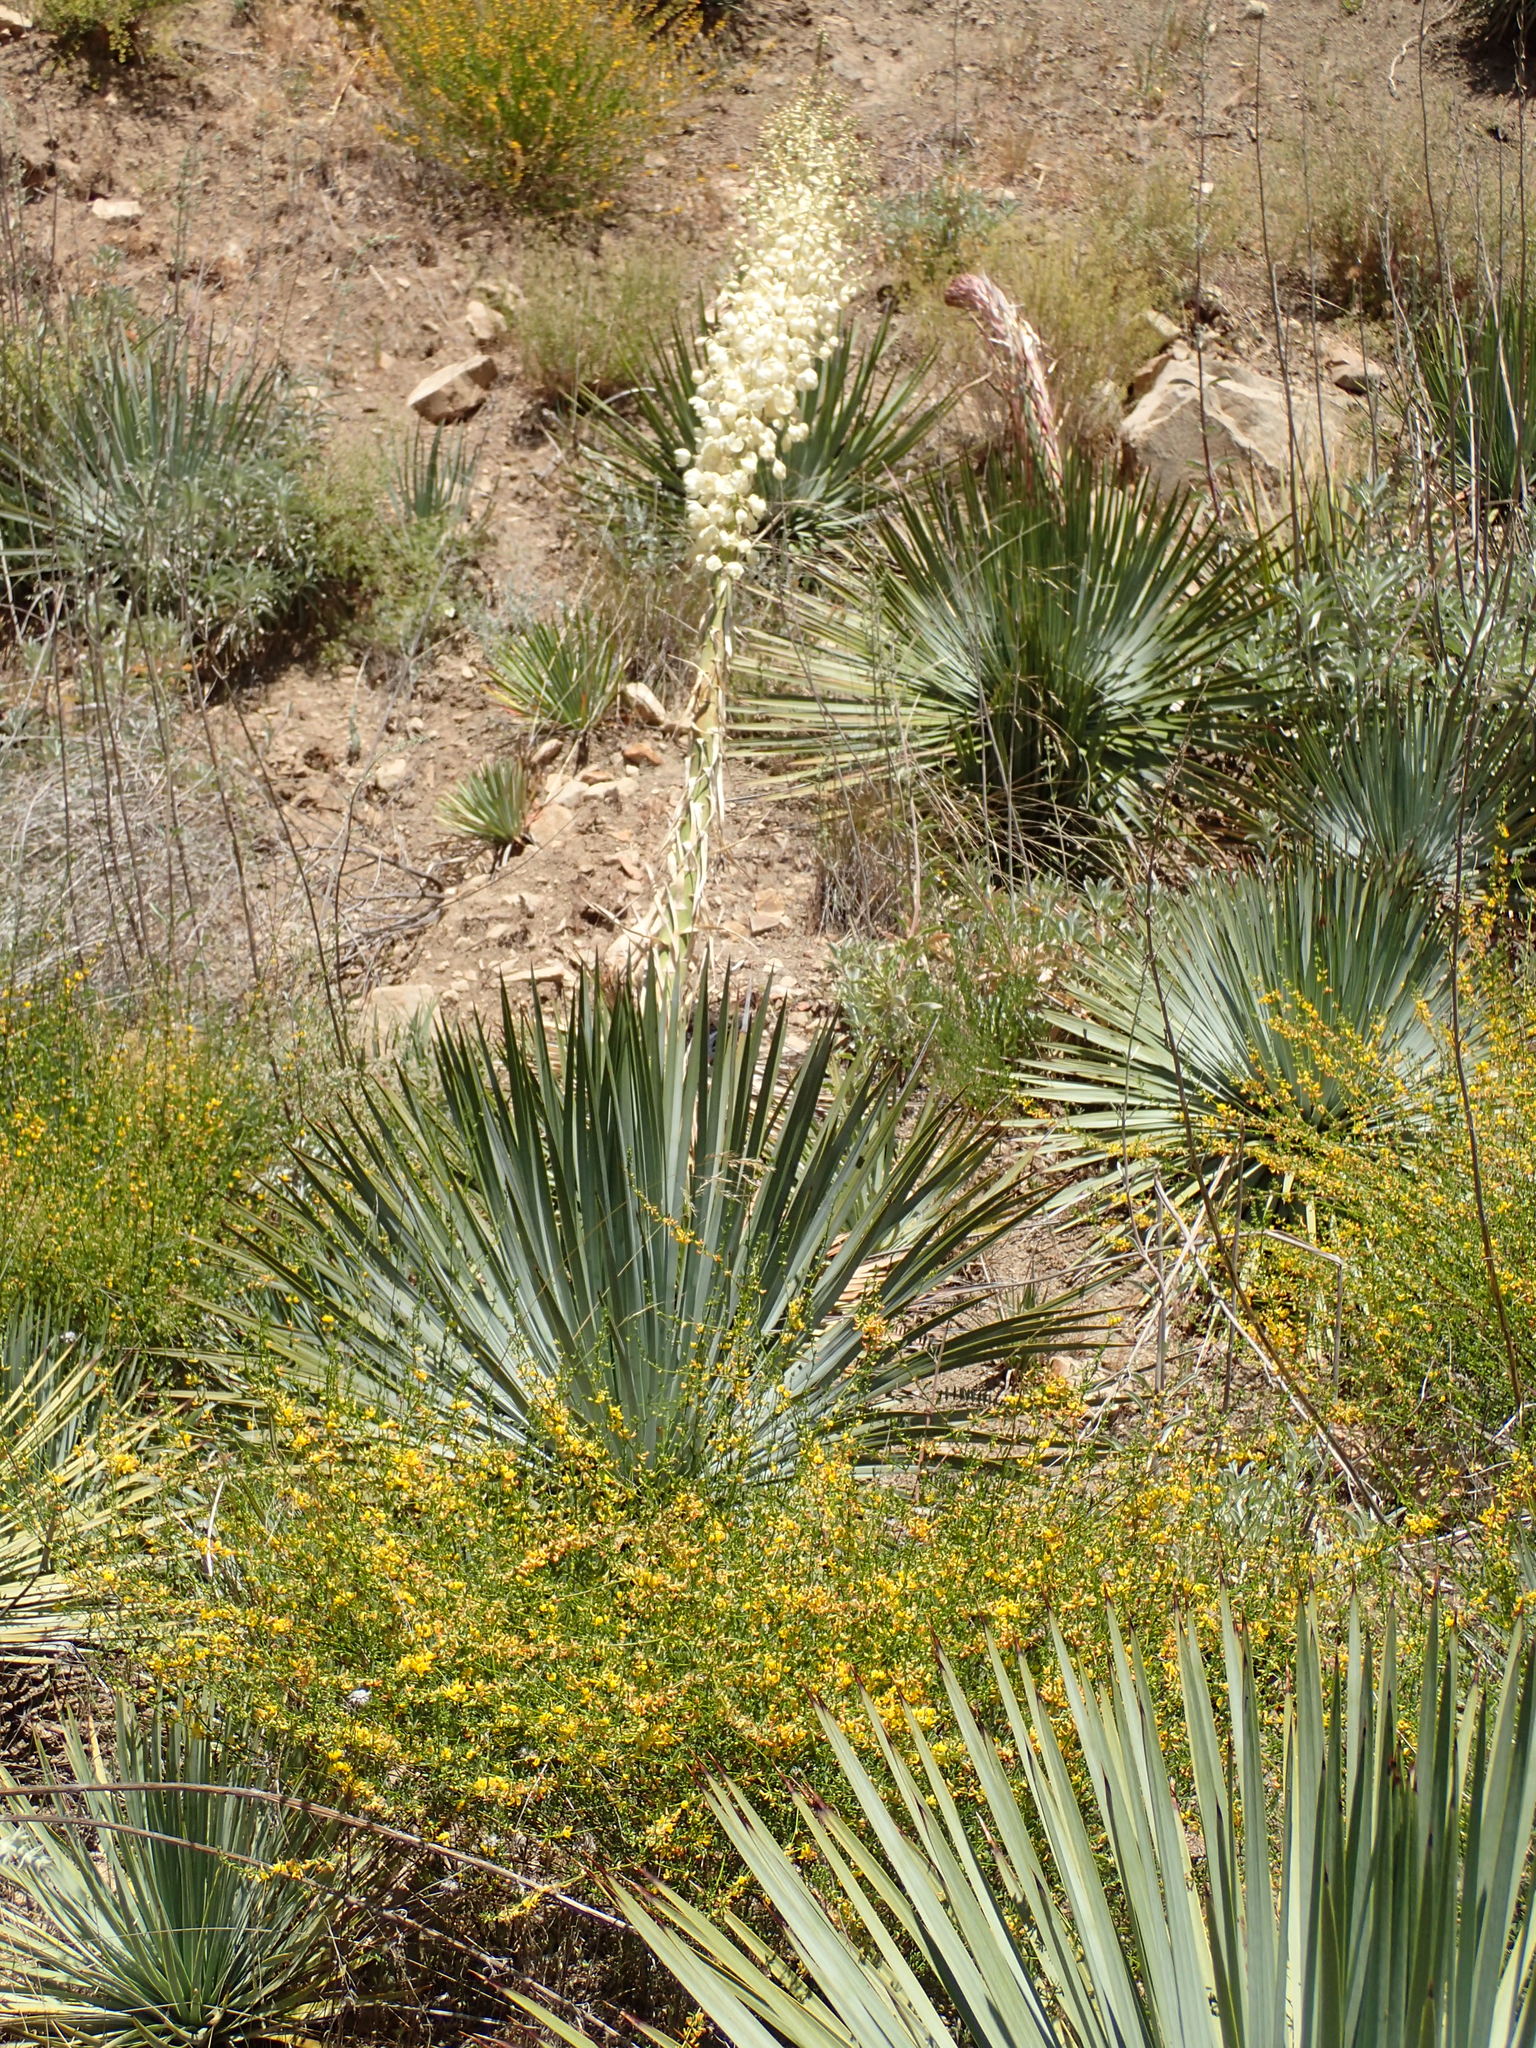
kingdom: Plantae
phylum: Tracheophyta
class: Liliopsida
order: Asparagales
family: Asparagaceae
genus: Hesperoyucca
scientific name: Hesperoyucca whipplei
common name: Our lord's-candle
